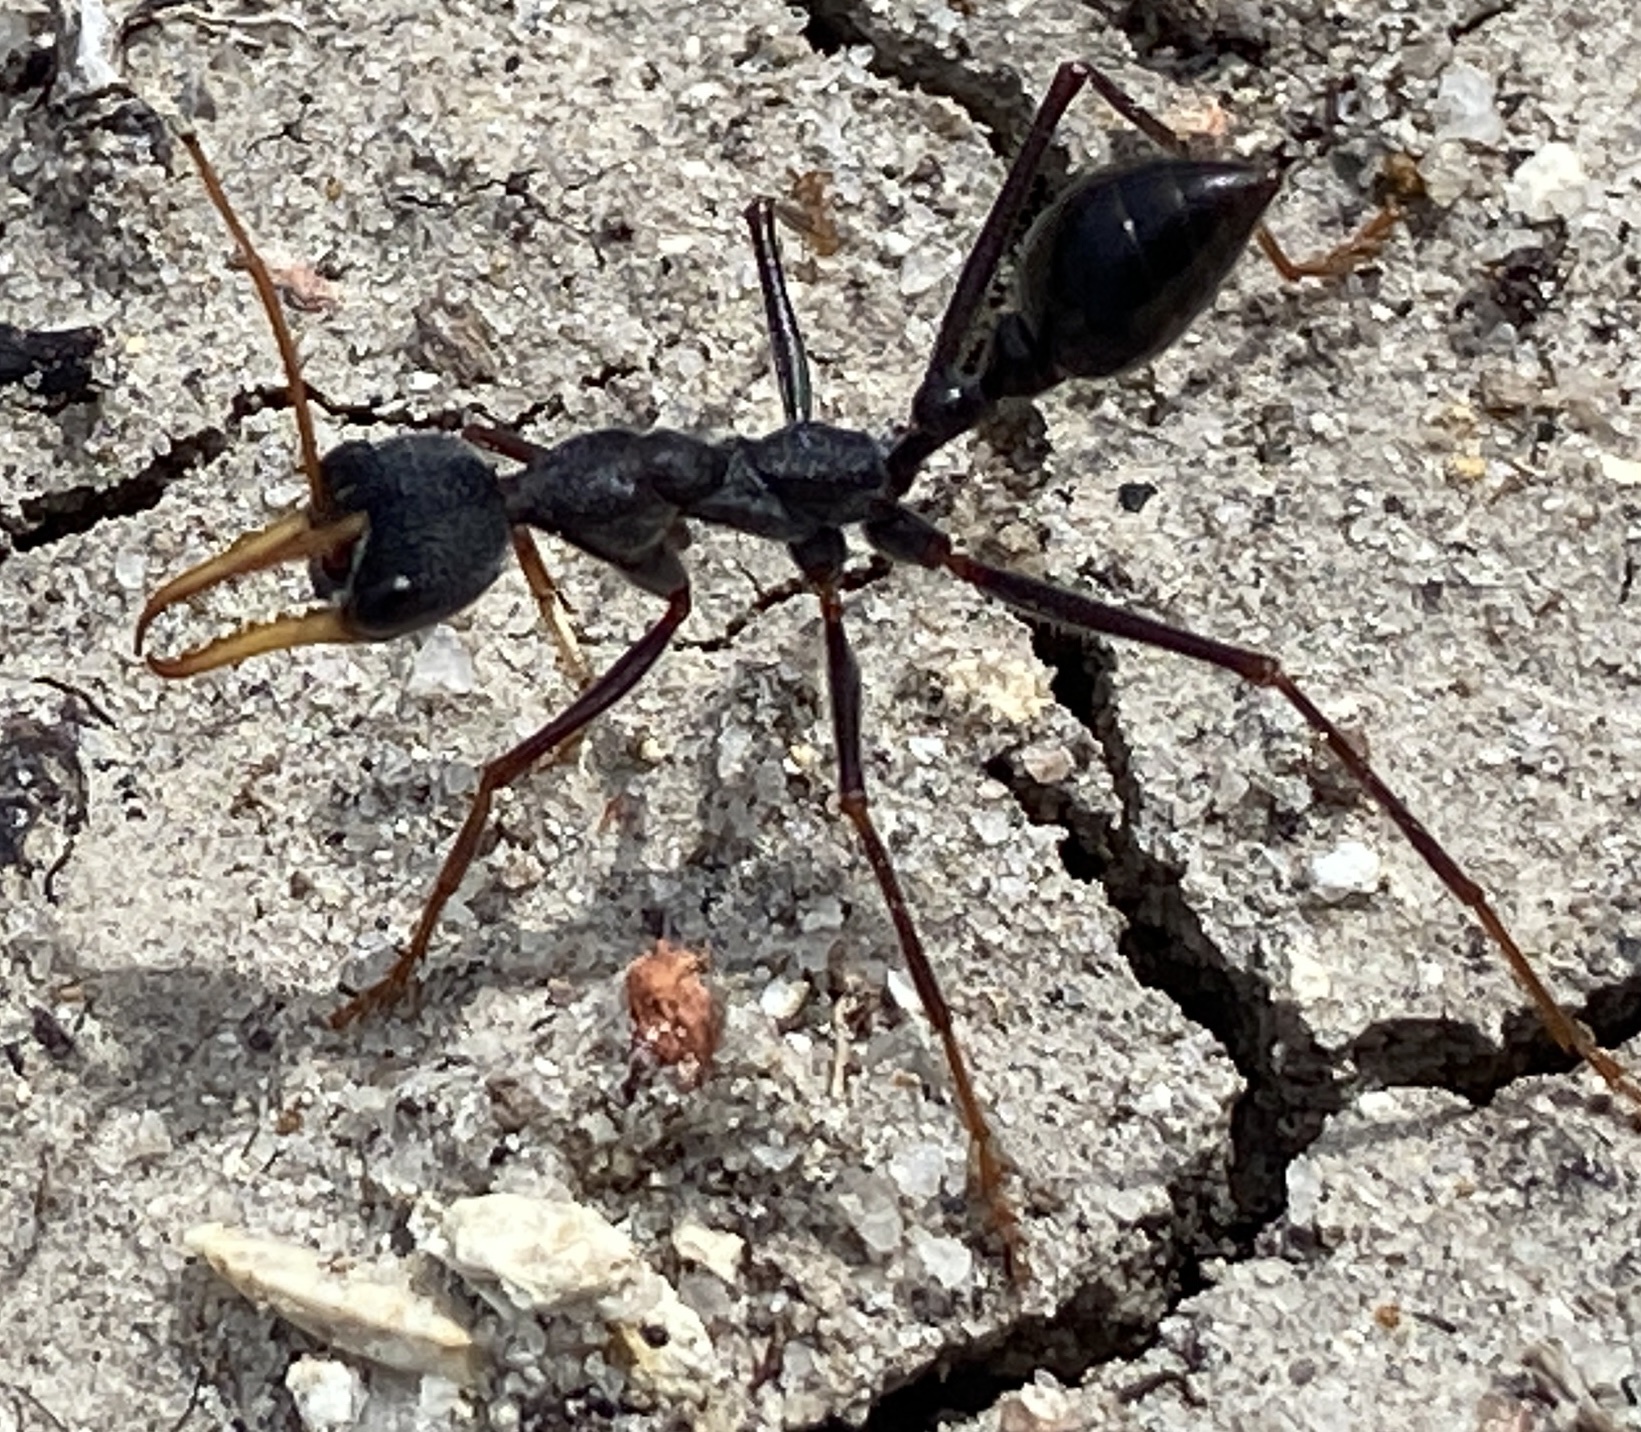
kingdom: Animalia
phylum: Arthropoda
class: Insecta
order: Hymenoptera
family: Formicidae
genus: Myrmecia
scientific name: Myrmecia rubripes
